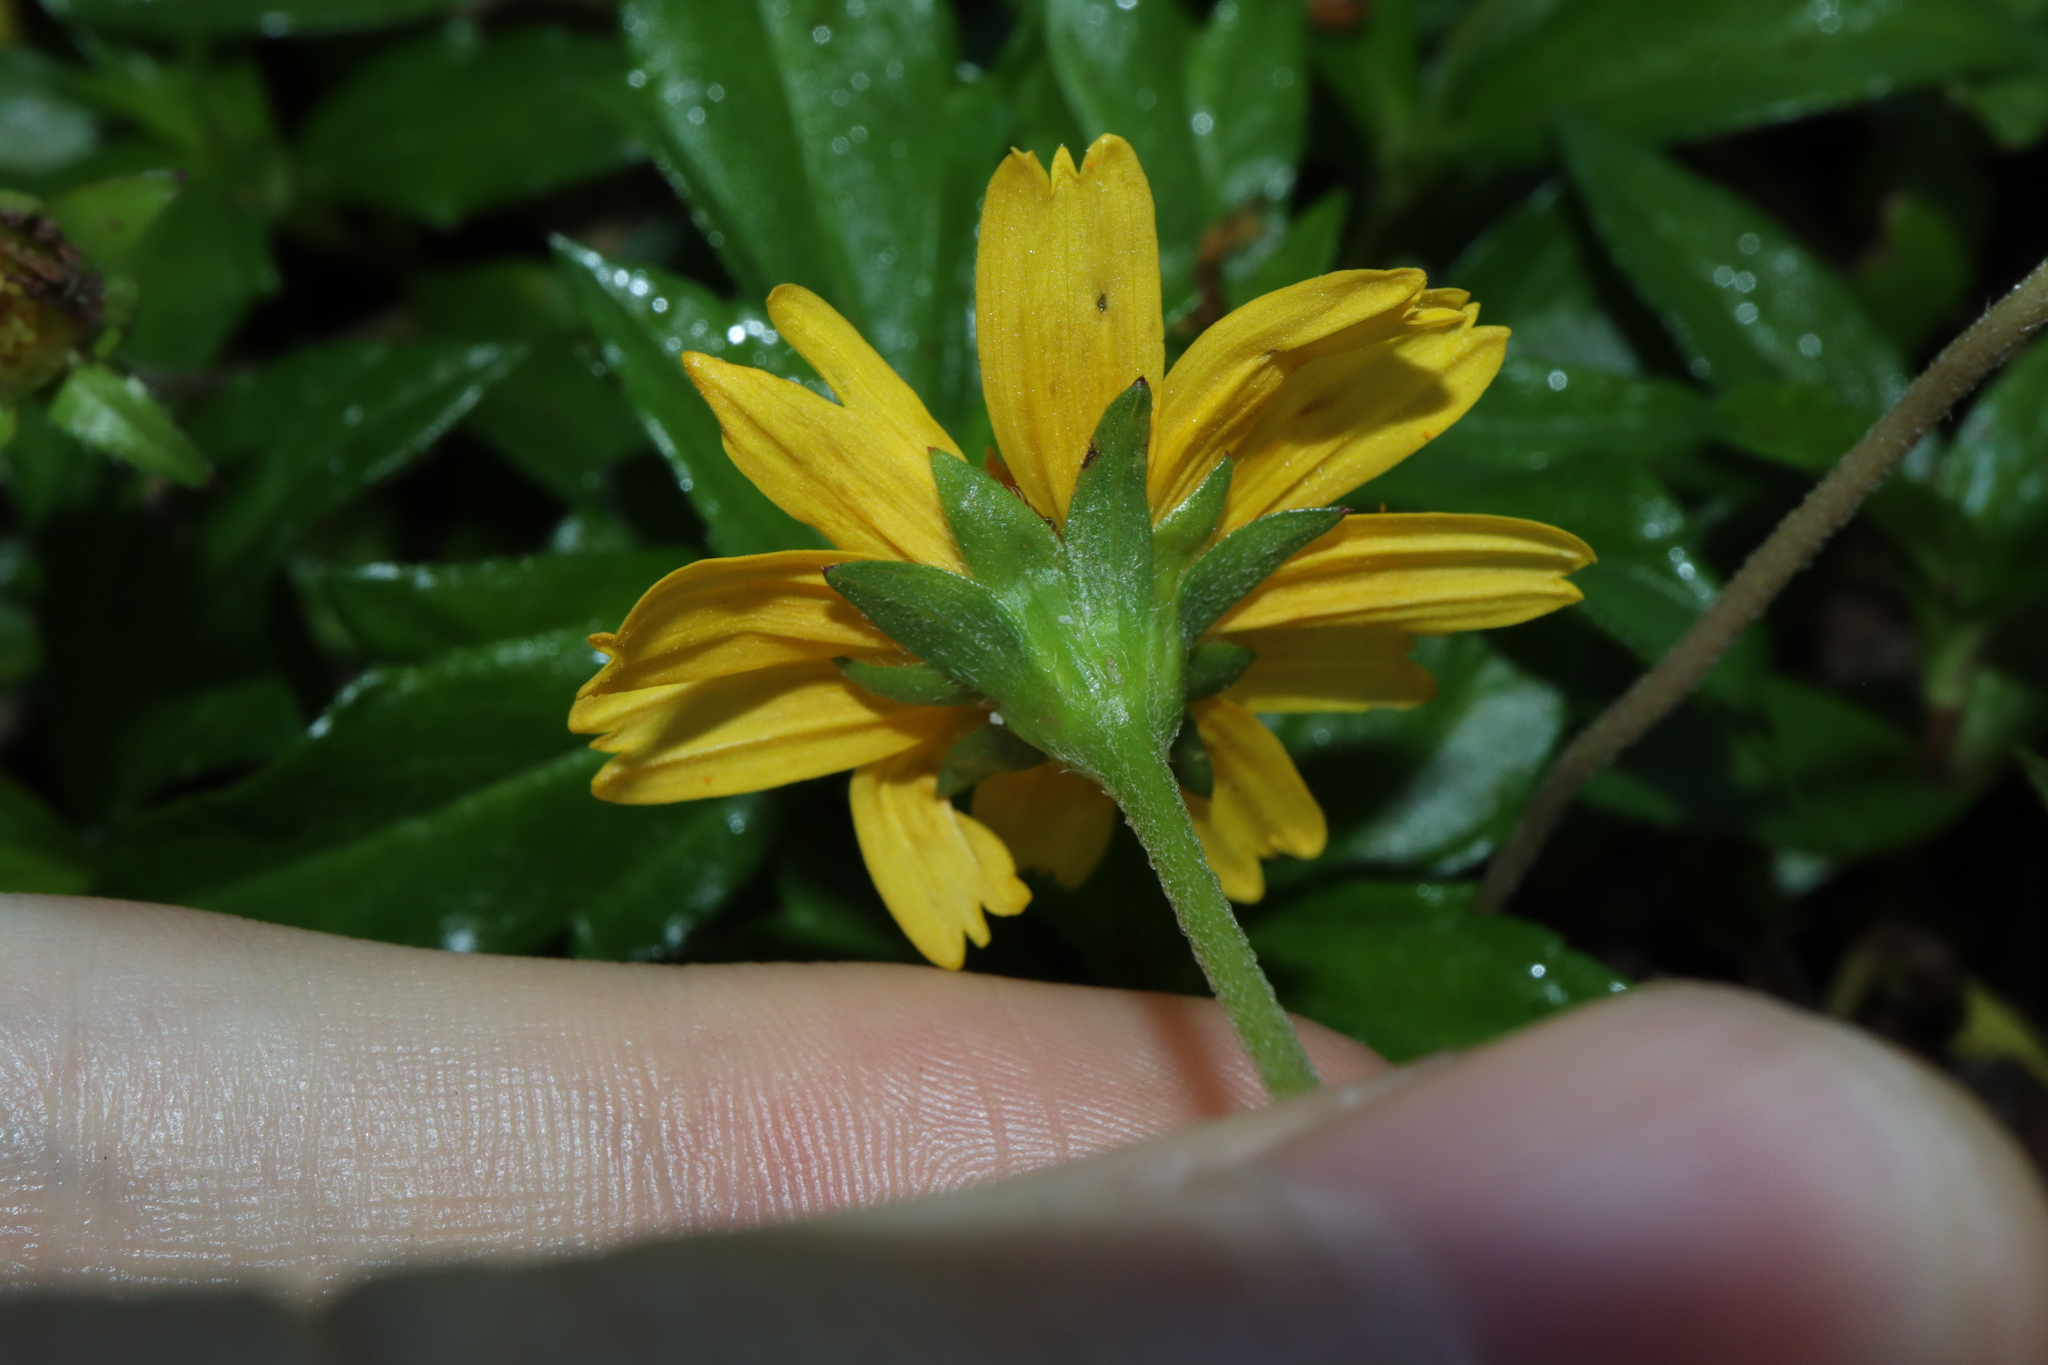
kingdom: Plantae
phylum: Tracheophyta
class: Magnoliopsida
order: Asterales
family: Asteraceae
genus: Sphagneticola
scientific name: Sphagneticola trilobata
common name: Bay biscayne creeping-oxeye
